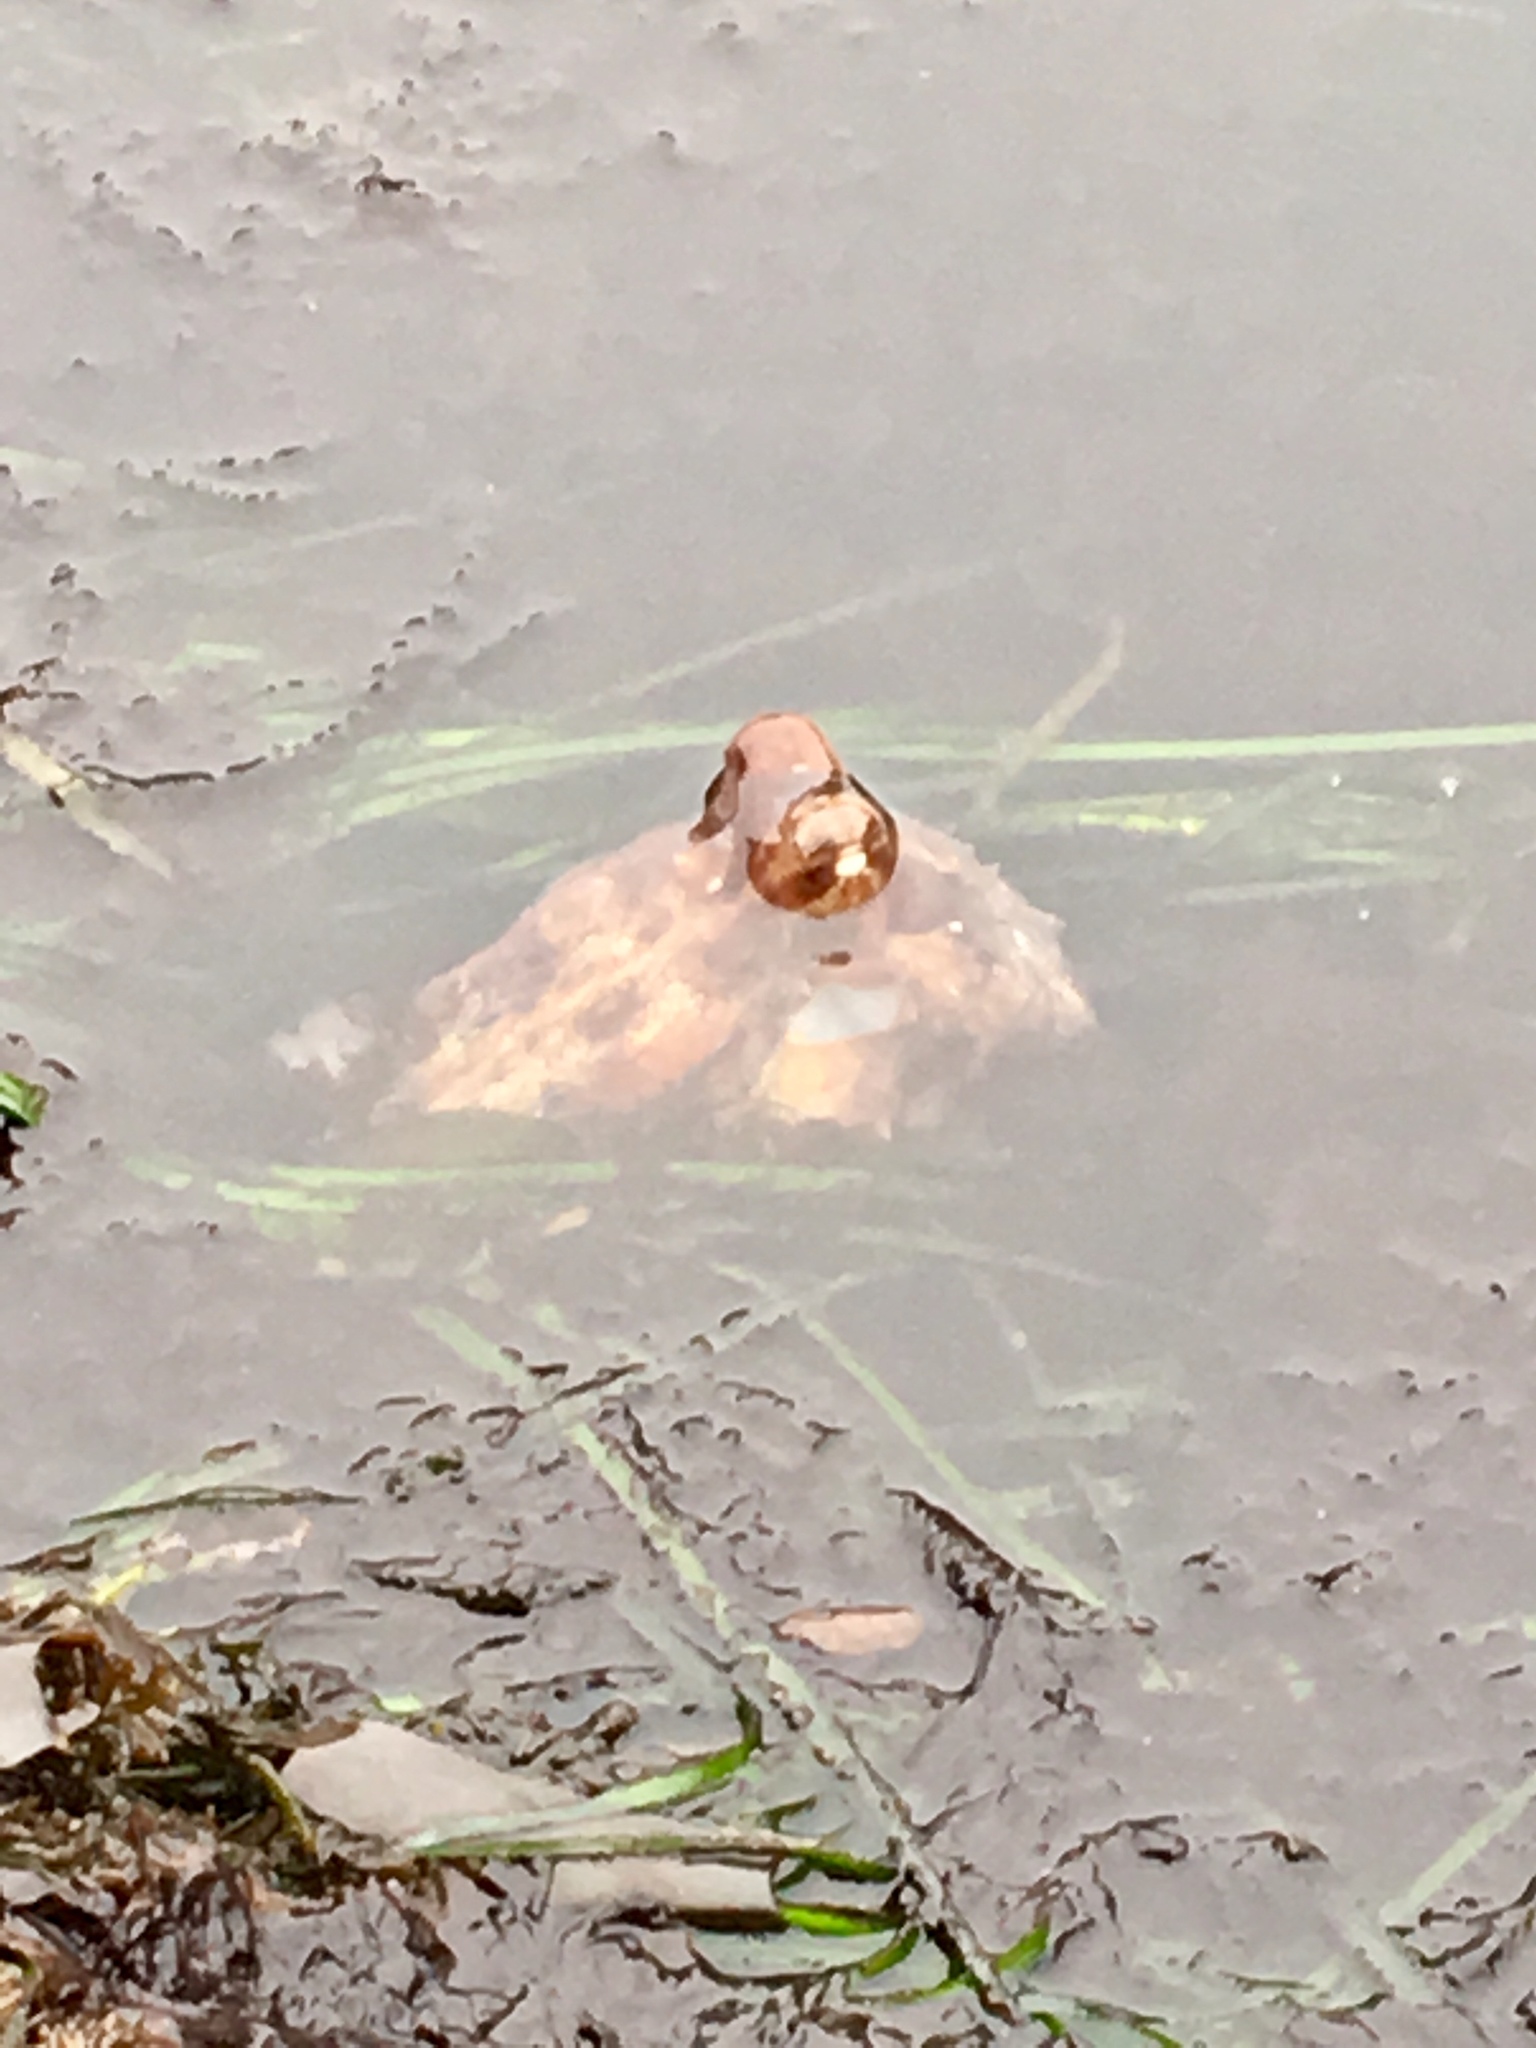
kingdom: Animalia
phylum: Mollusca
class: Cephalopoda
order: Octopoda
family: Octopodidae
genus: Octopus
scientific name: Octopus rubescens
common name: East pacific red octopus
